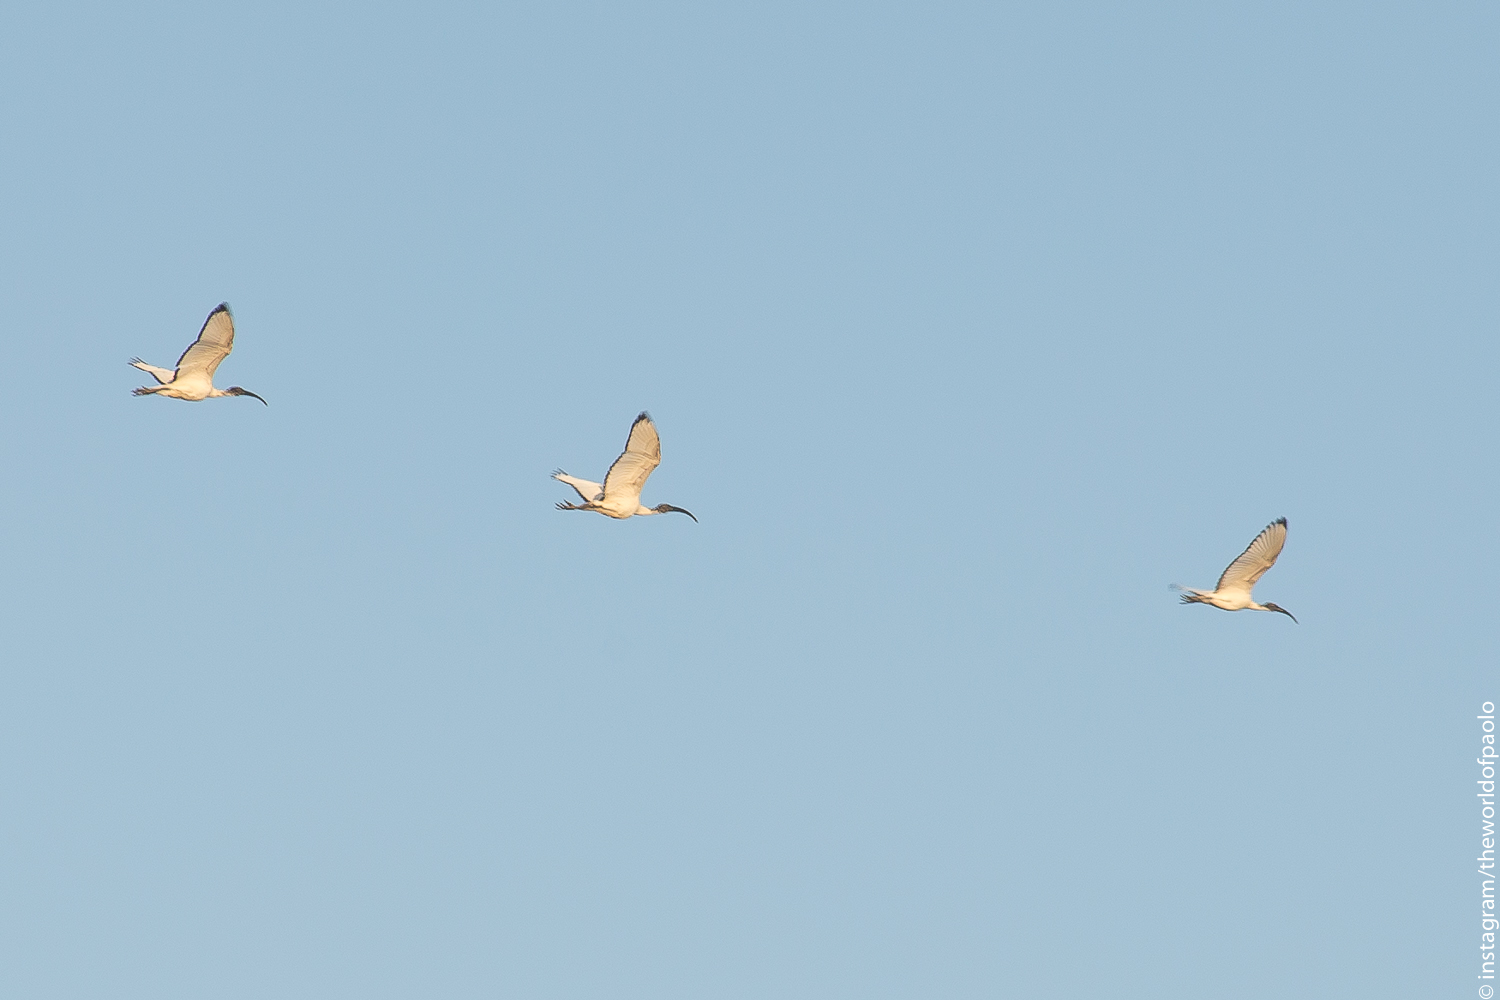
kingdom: Animalia
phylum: Chordata
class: Aves
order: Pelecaniformes
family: Threskiornithidae
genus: Threskiornis
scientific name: Threskiornis aethiopicus
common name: Sacred ibis
